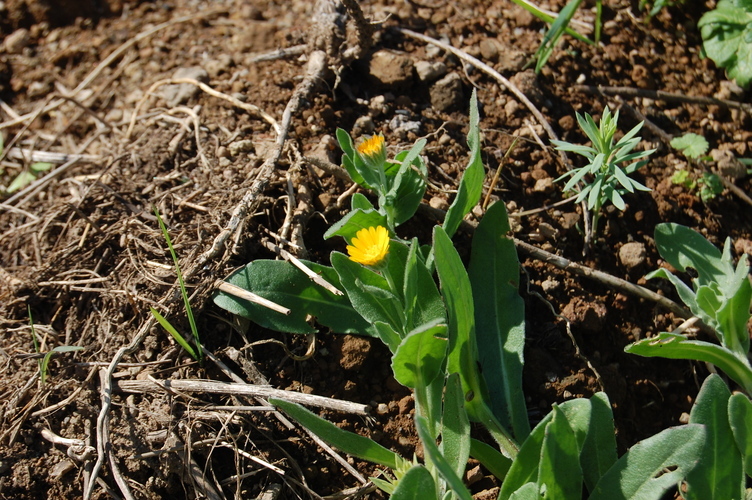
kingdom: Plantae
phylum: Tracheophyta
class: Magnoliopsida
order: Asterales
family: Asteraceae
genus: Calendula
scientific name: Calendula arvensis
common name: Field marigold
